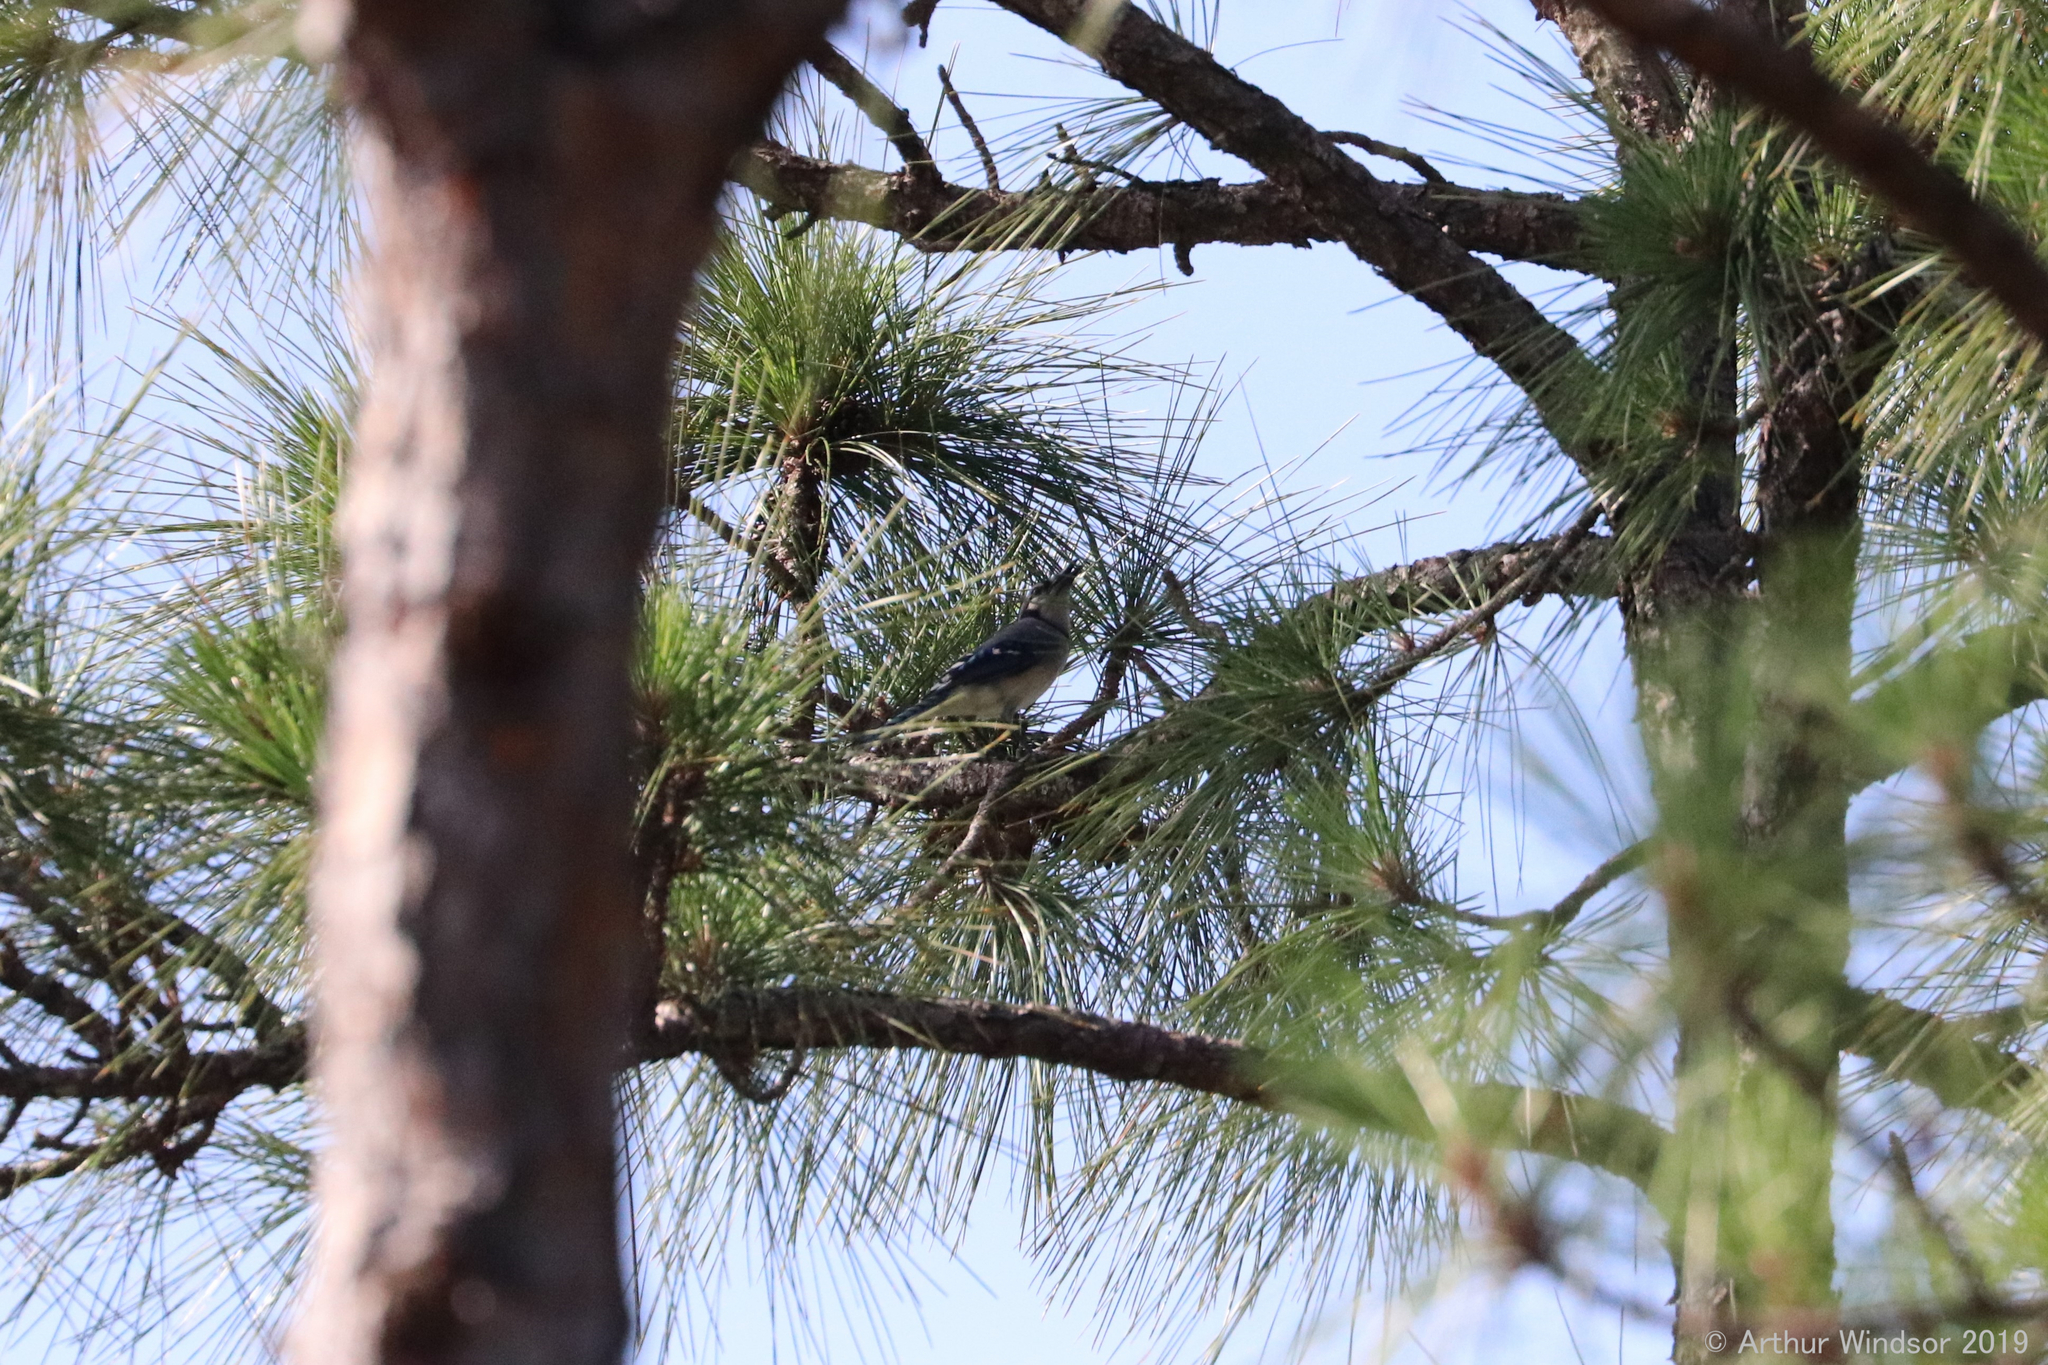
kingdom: Animalia
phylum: Chordata
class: Aves
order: Passeriformes
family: Corvidae
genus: Cyanocitta
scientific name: Cyanocitta cristata
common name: Blue jay
